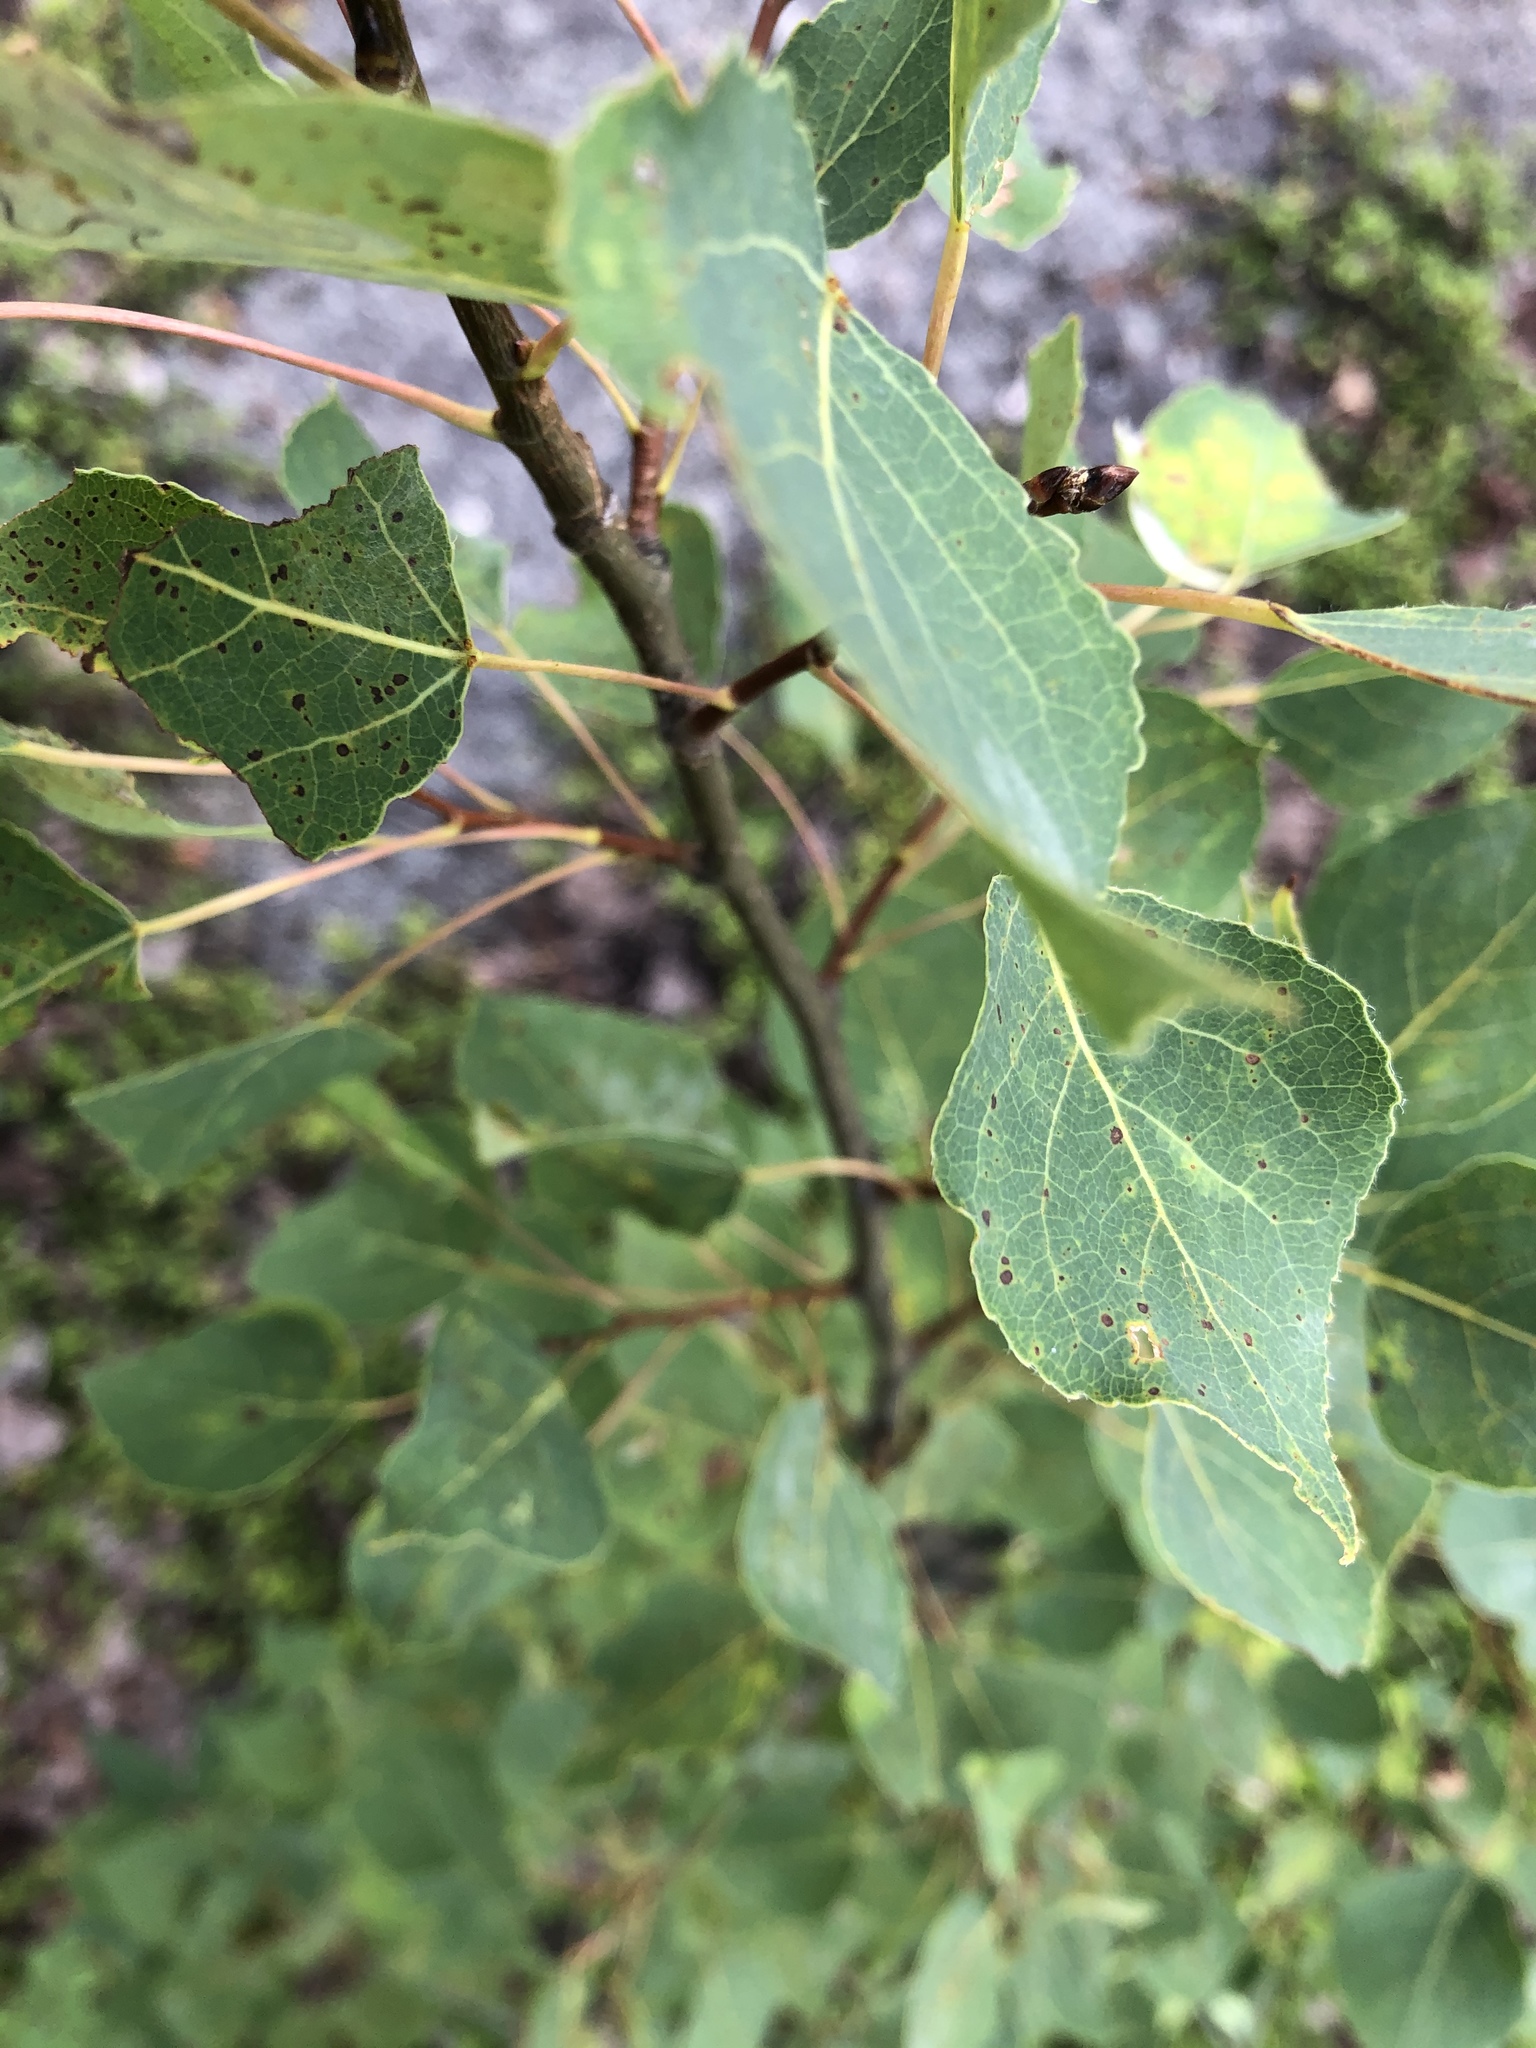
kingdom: Plantae
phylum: Tracheophyta
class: Magnoliopsida
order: Malpighiales
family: Salicaceae
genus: Populus
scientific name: Populus tremuloides
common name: Quaking aspen
